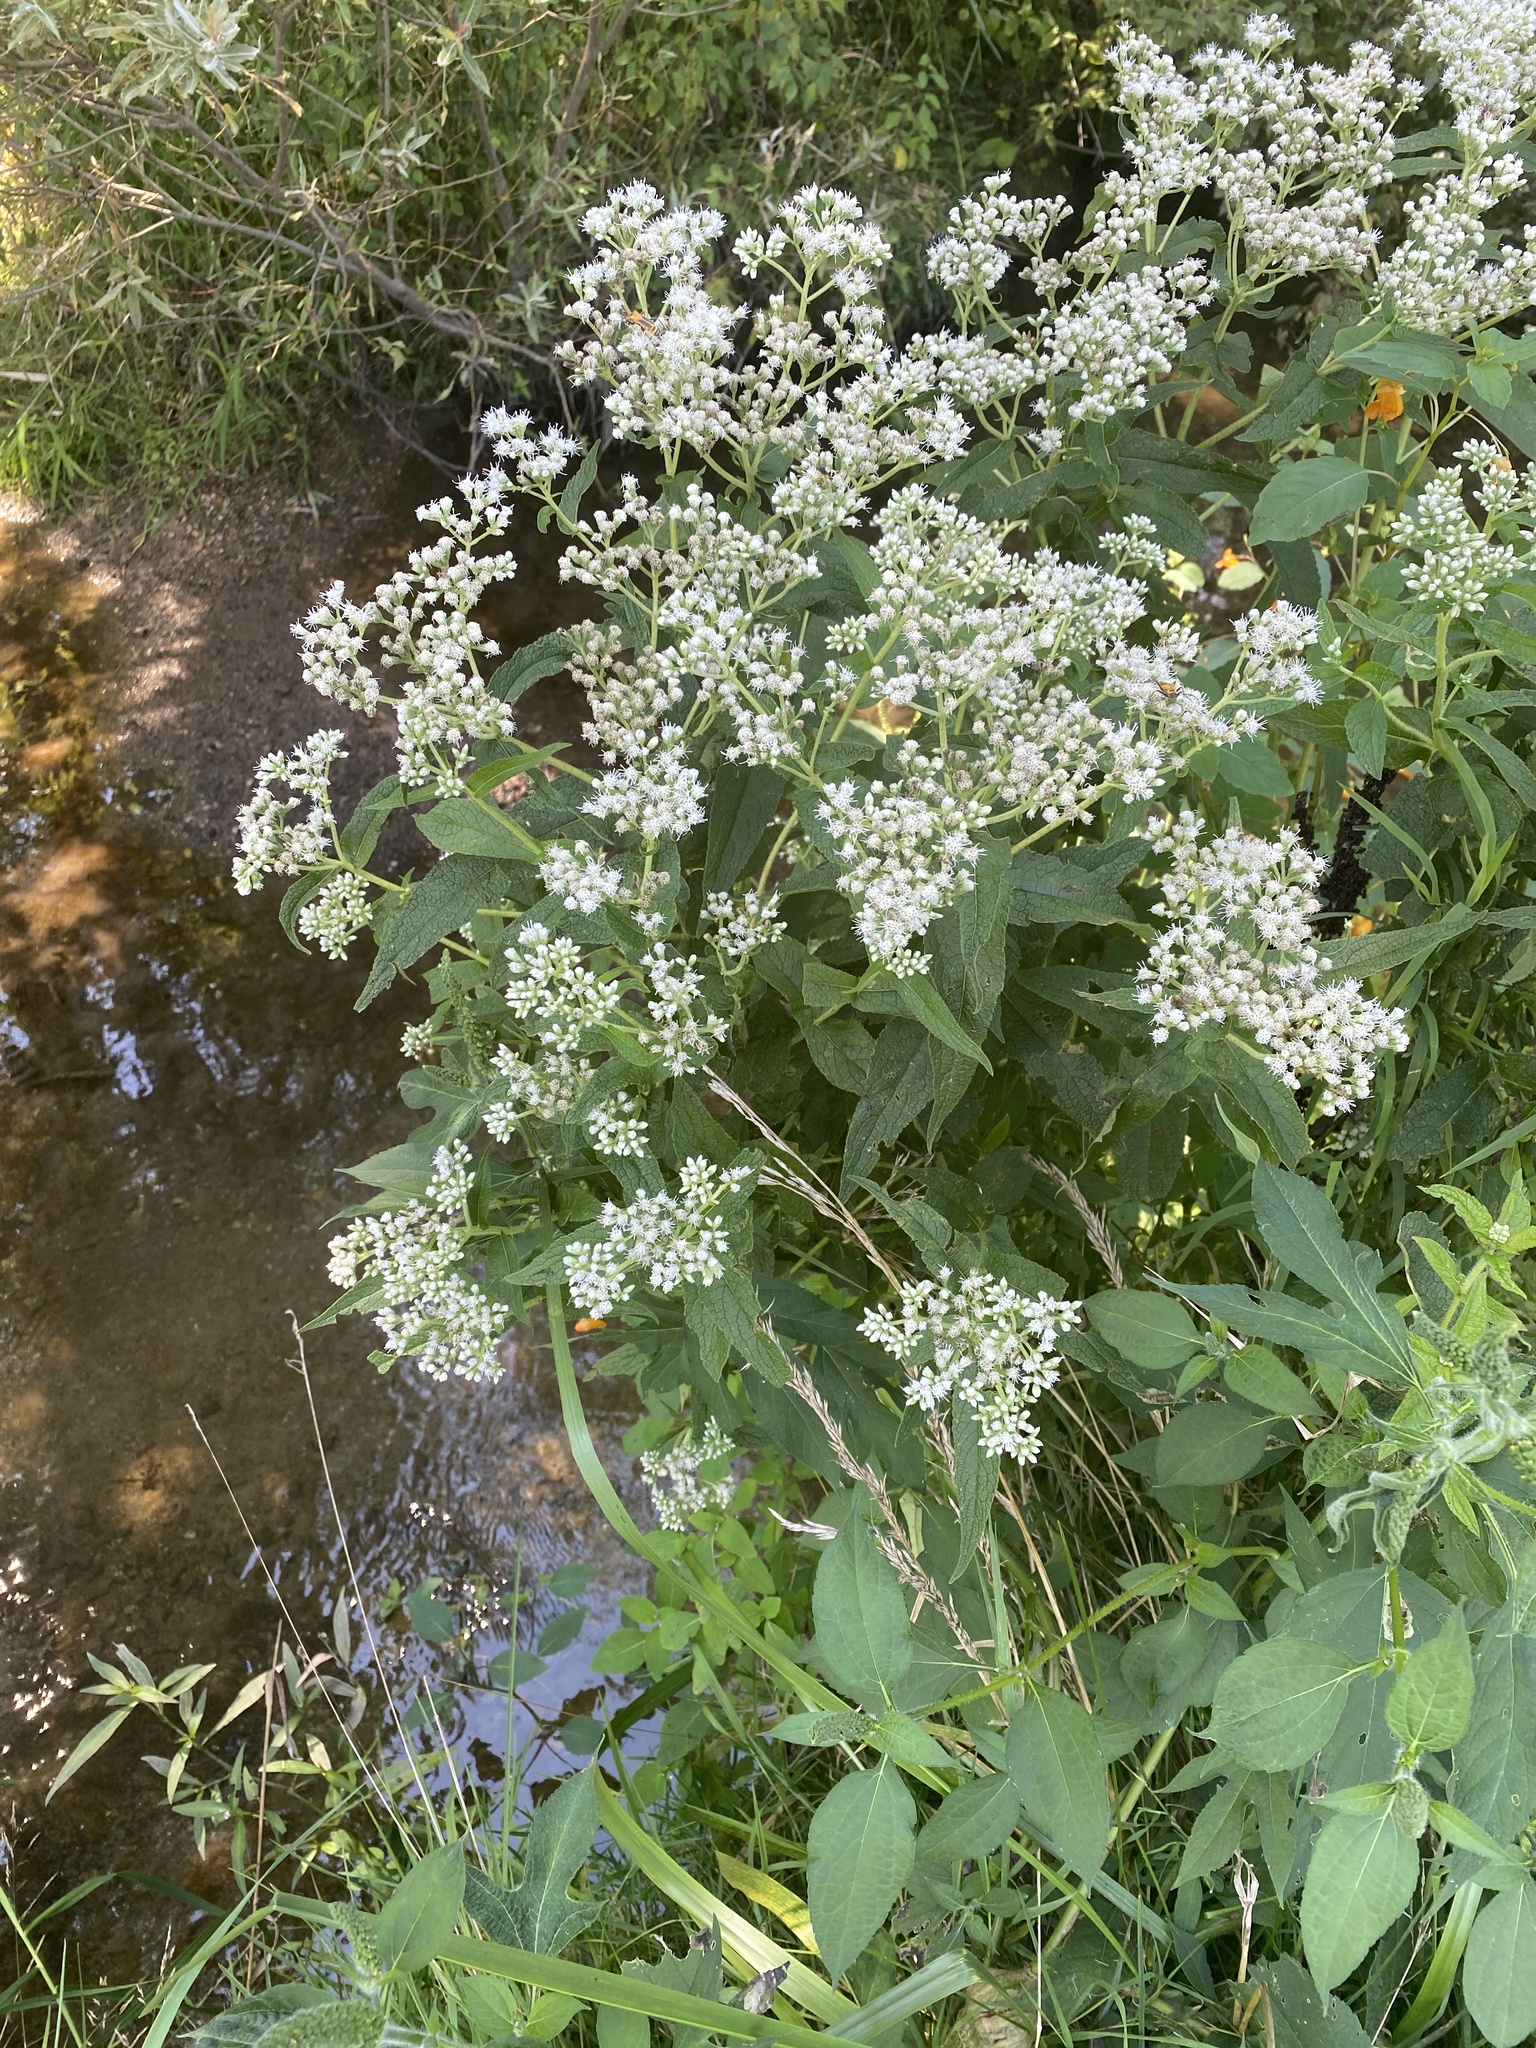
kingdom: Plantae
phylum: Tracheophyta
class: Magnoliopsida
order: Asterales
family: Asteraceae
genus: Eupatorium
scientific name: Eupatorium perfoliatum
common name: Boneset
